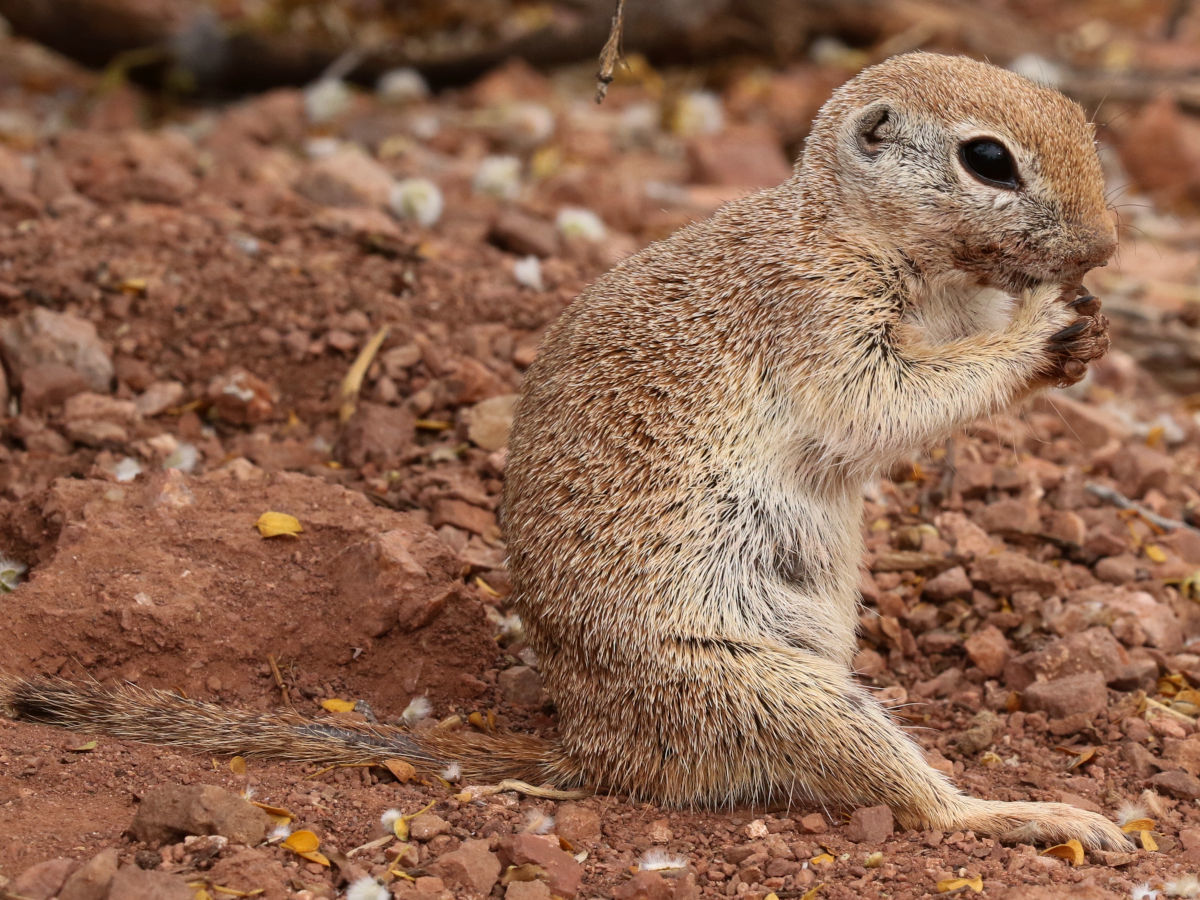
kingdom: Animalia
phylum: Chordata
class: Mammalia
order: Rodentia
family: Sciuridae
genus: Xerospermophilus
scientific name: Xerospermophilus tereticaudus
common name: Round-tailed ground squirrel
